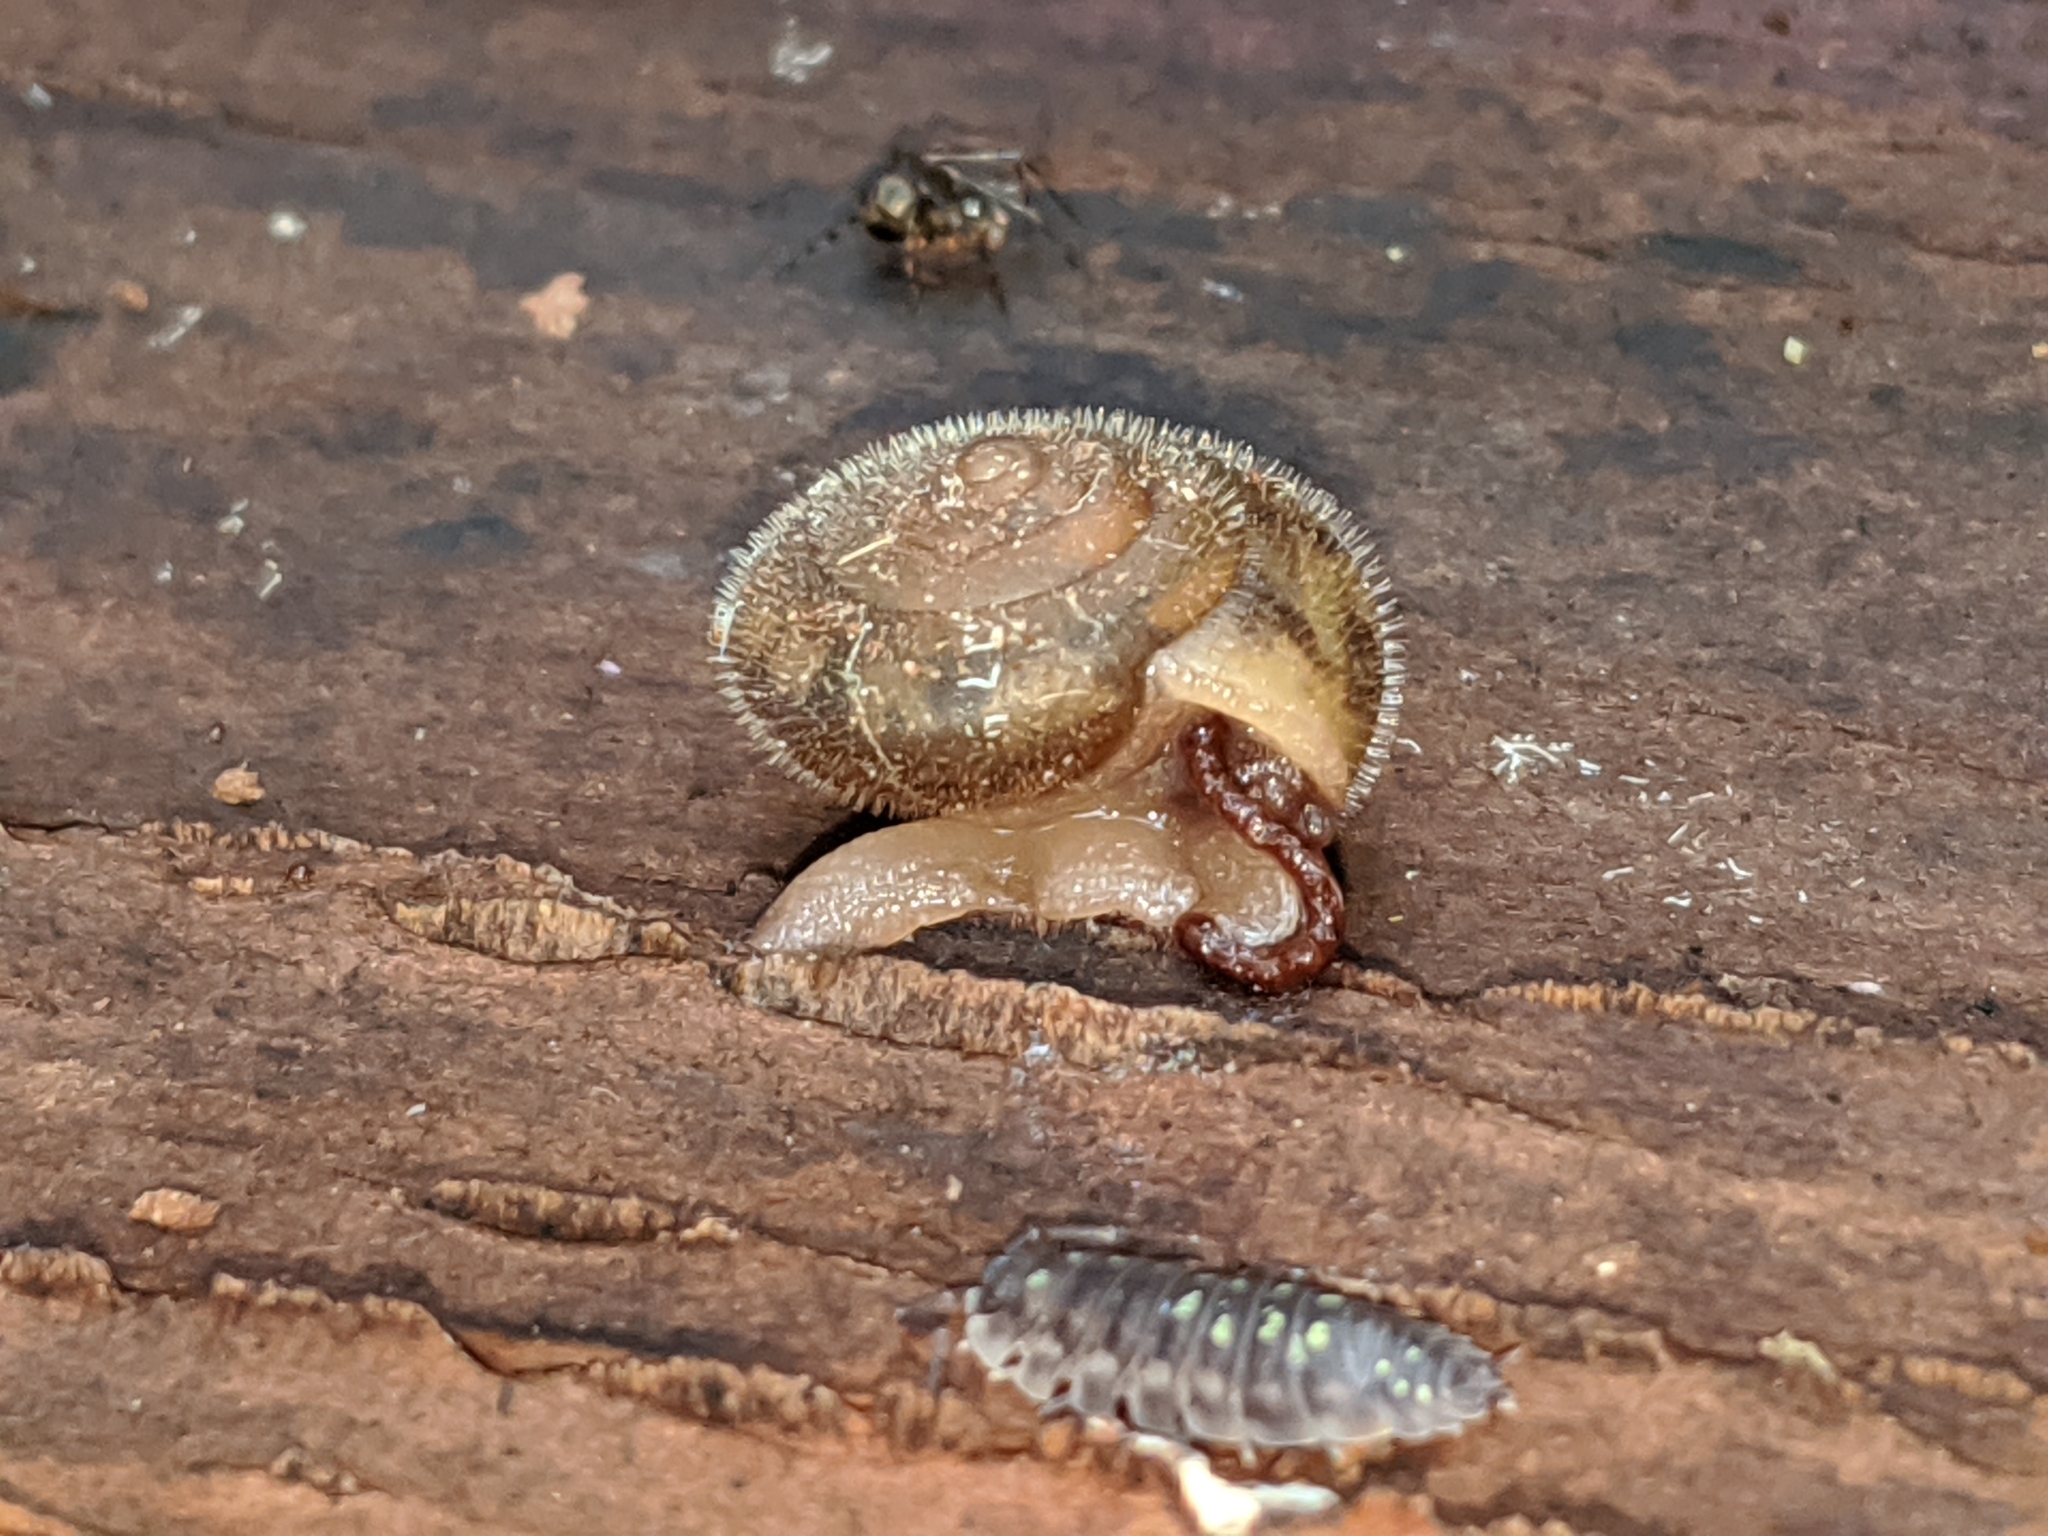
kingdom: Animalia
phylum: Mollusca
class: Gastropoda
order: Stylommatophora
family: Polygyridae
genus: Vespericola
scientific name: Vespericola columbianus
